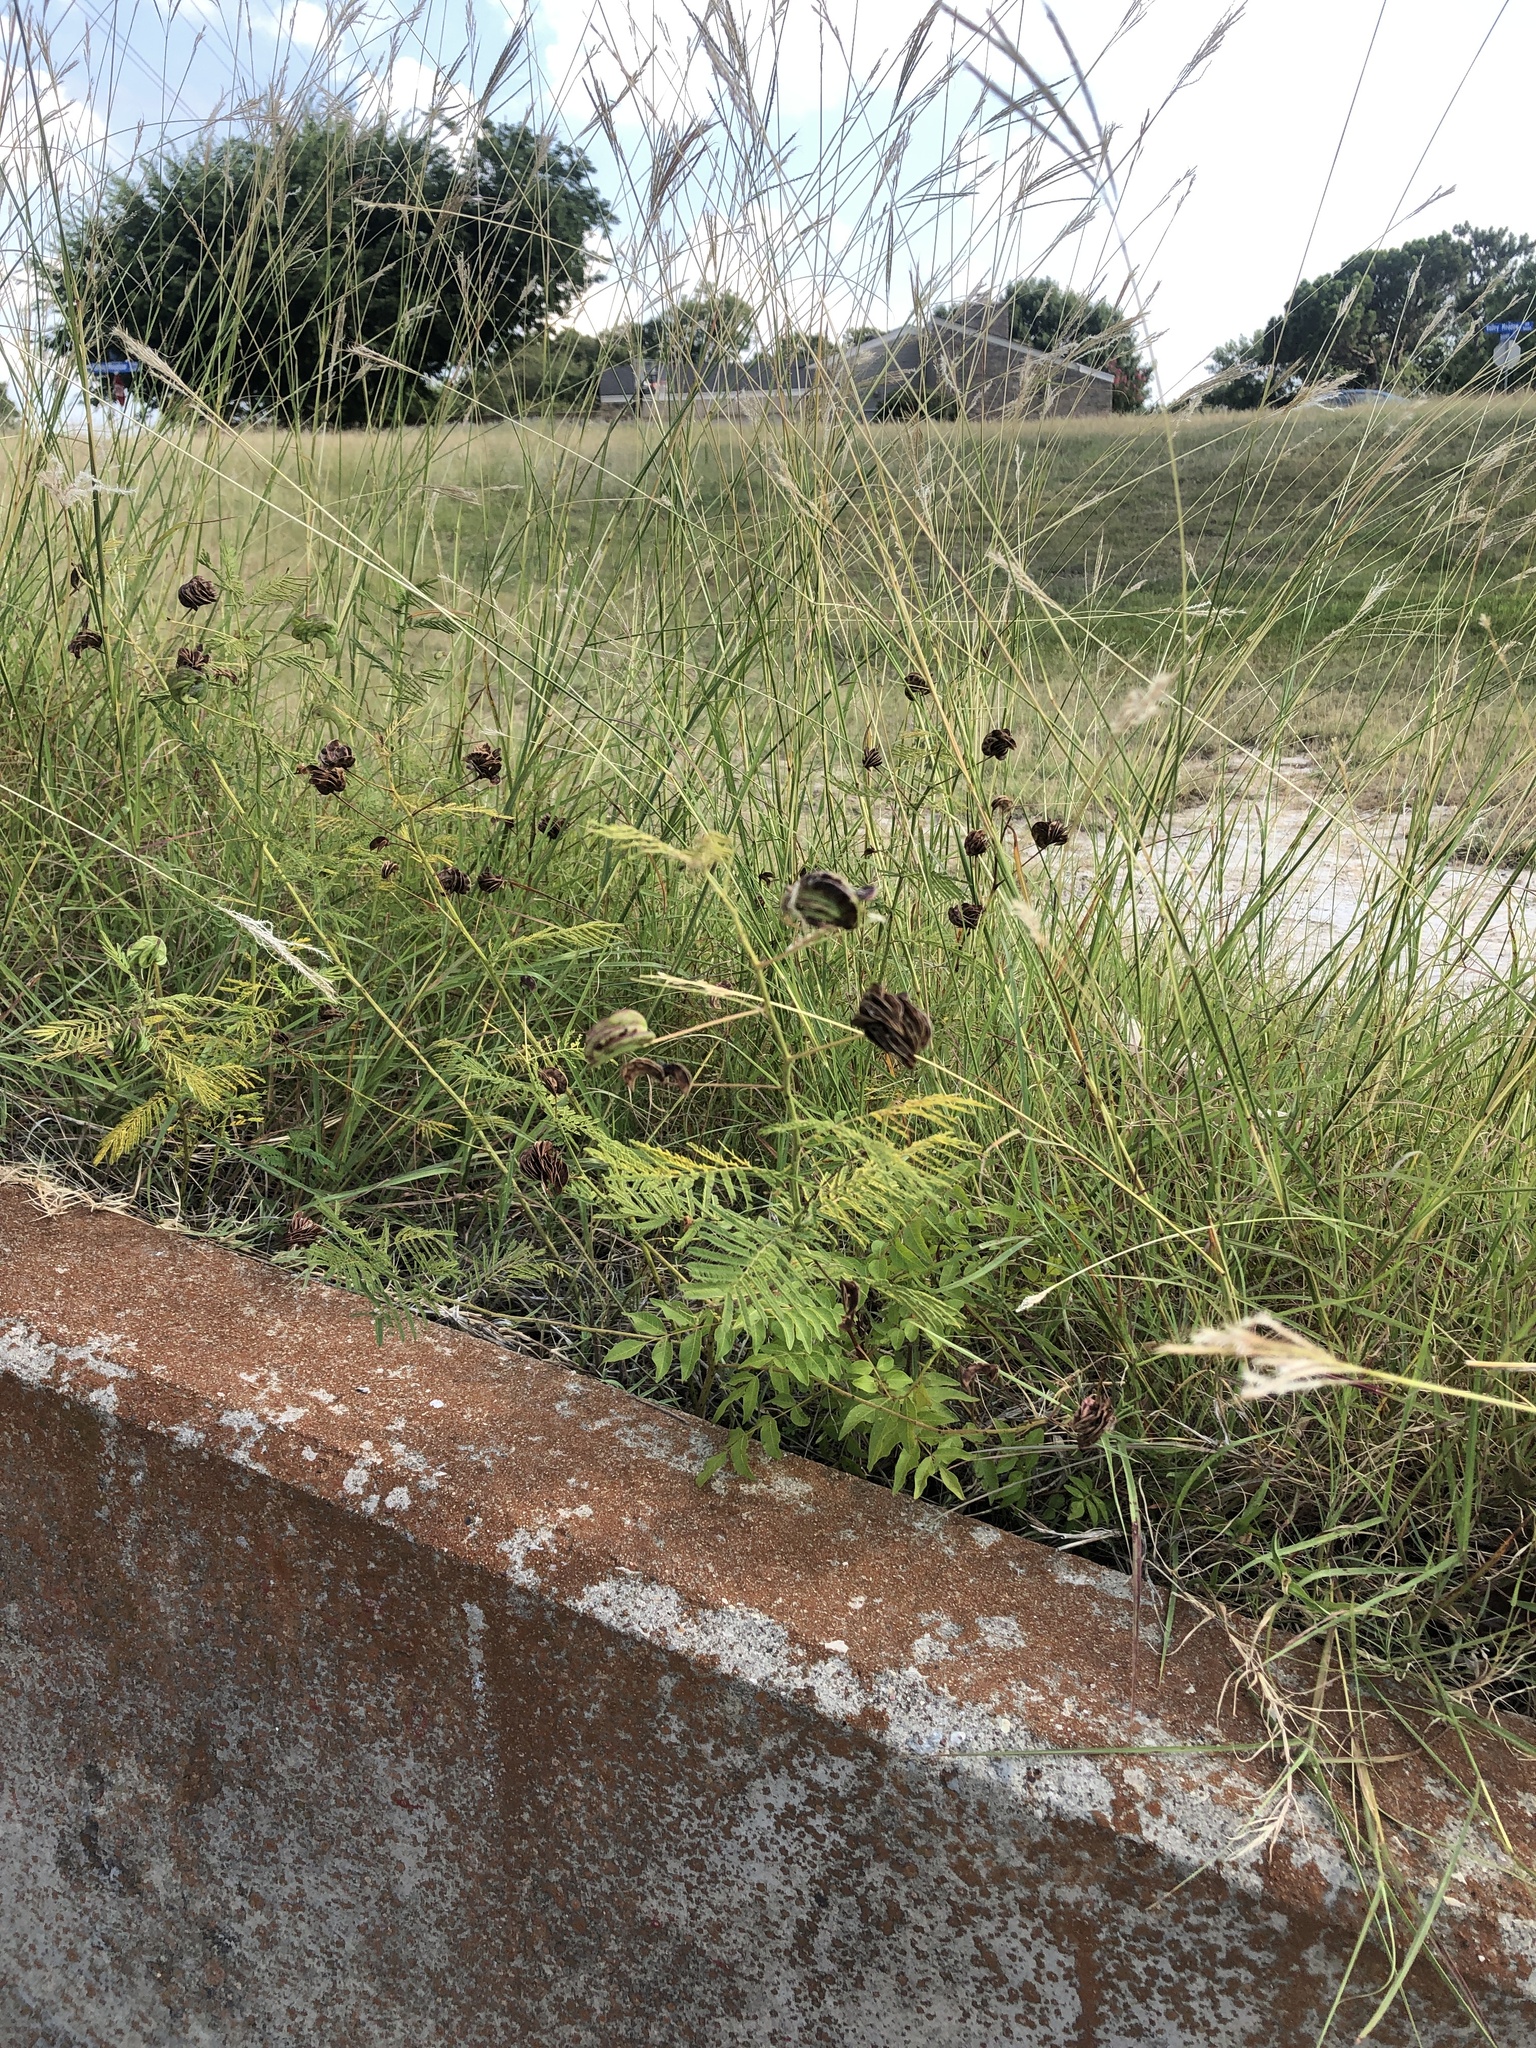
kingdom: Plantae
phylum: Tracheophyta
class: Magnoliopsida
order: Fabales
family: Fabaceae
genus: Desmanthus
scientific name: Desmanthus illinoensis
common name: Illinois bundle-flower
